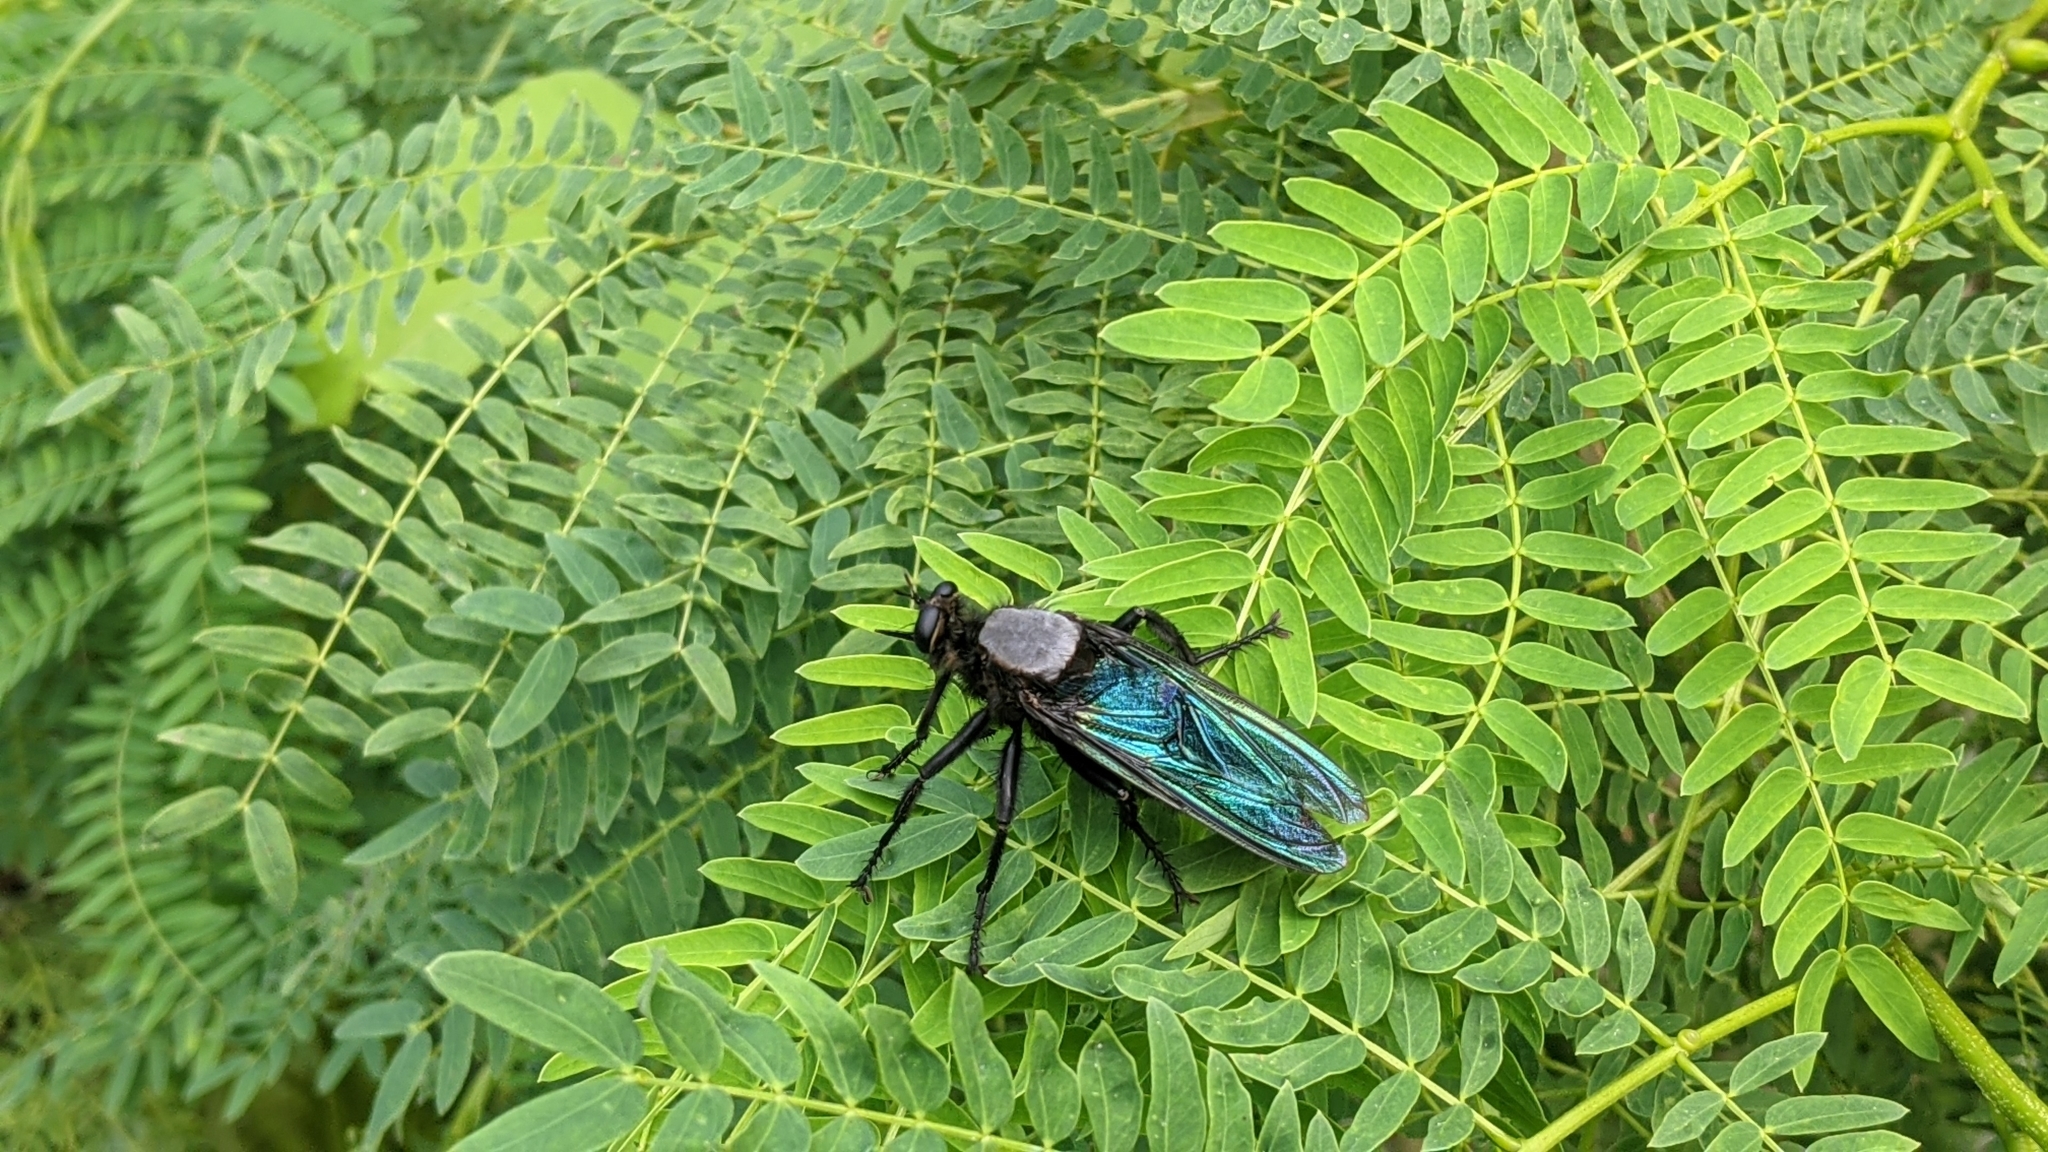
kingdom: Animalia
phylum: Arthropoda
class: Insecta
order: Diptera
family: Asilidae
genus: Microstylum
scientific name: Microstylum oberthurii
